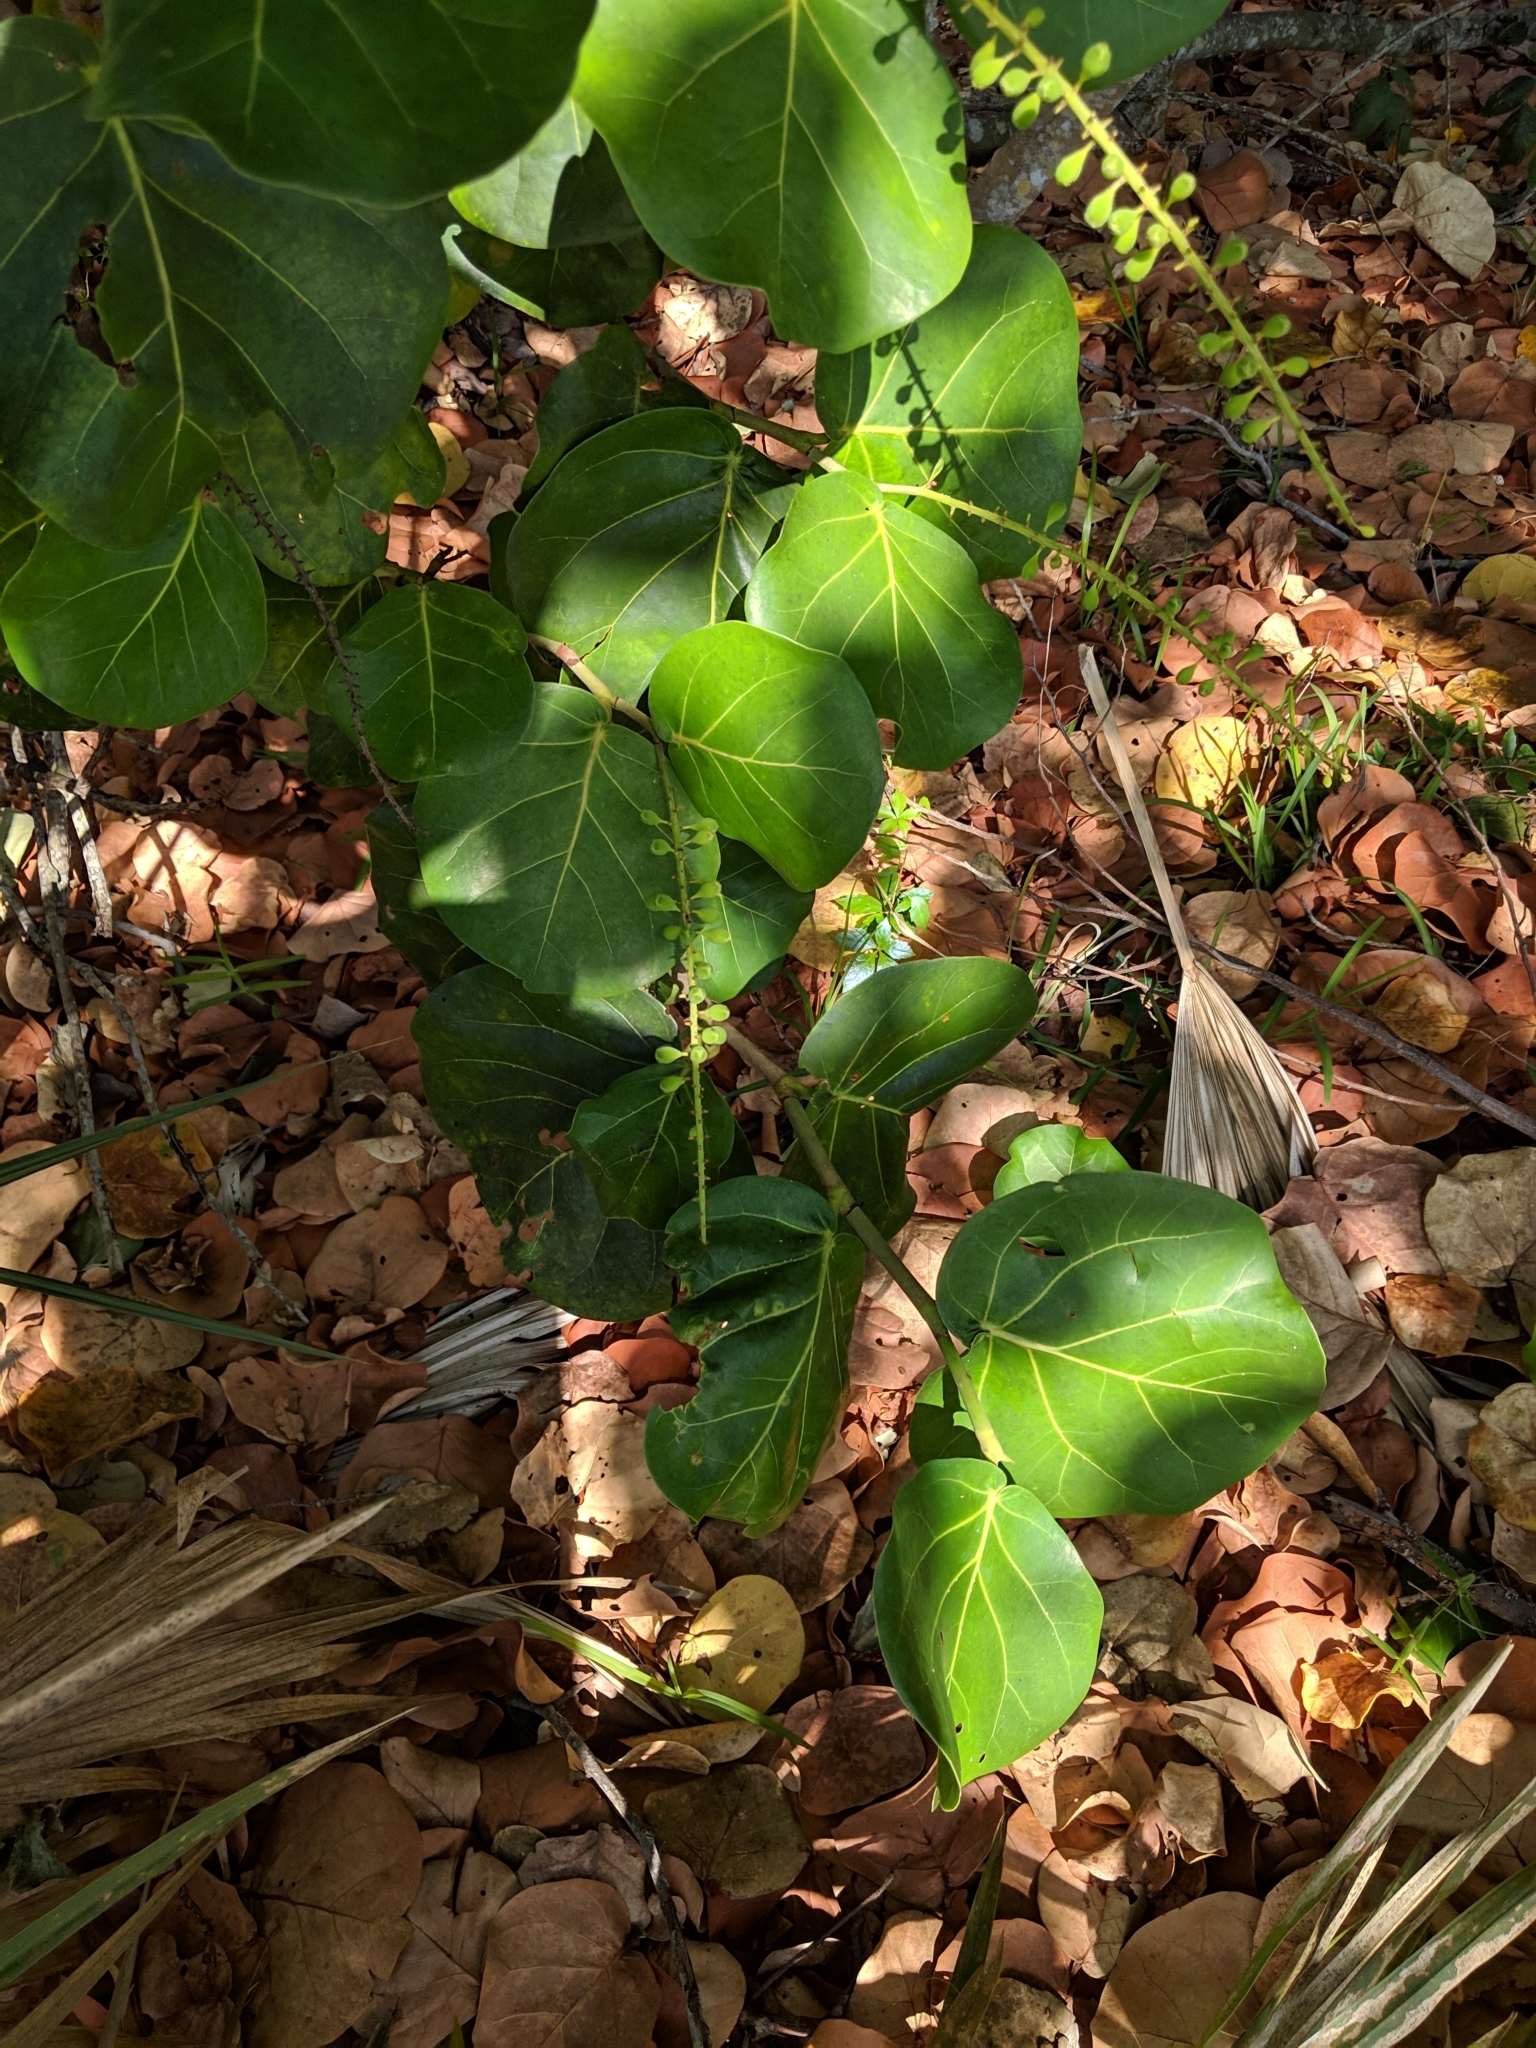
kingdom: Plantae
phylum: Tracheophyta
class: Magnoliopsida
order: Caryophyllales
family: Polygonaceae
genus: Coccoloba
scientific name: Coccoloba uvifera
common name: Seagrape
